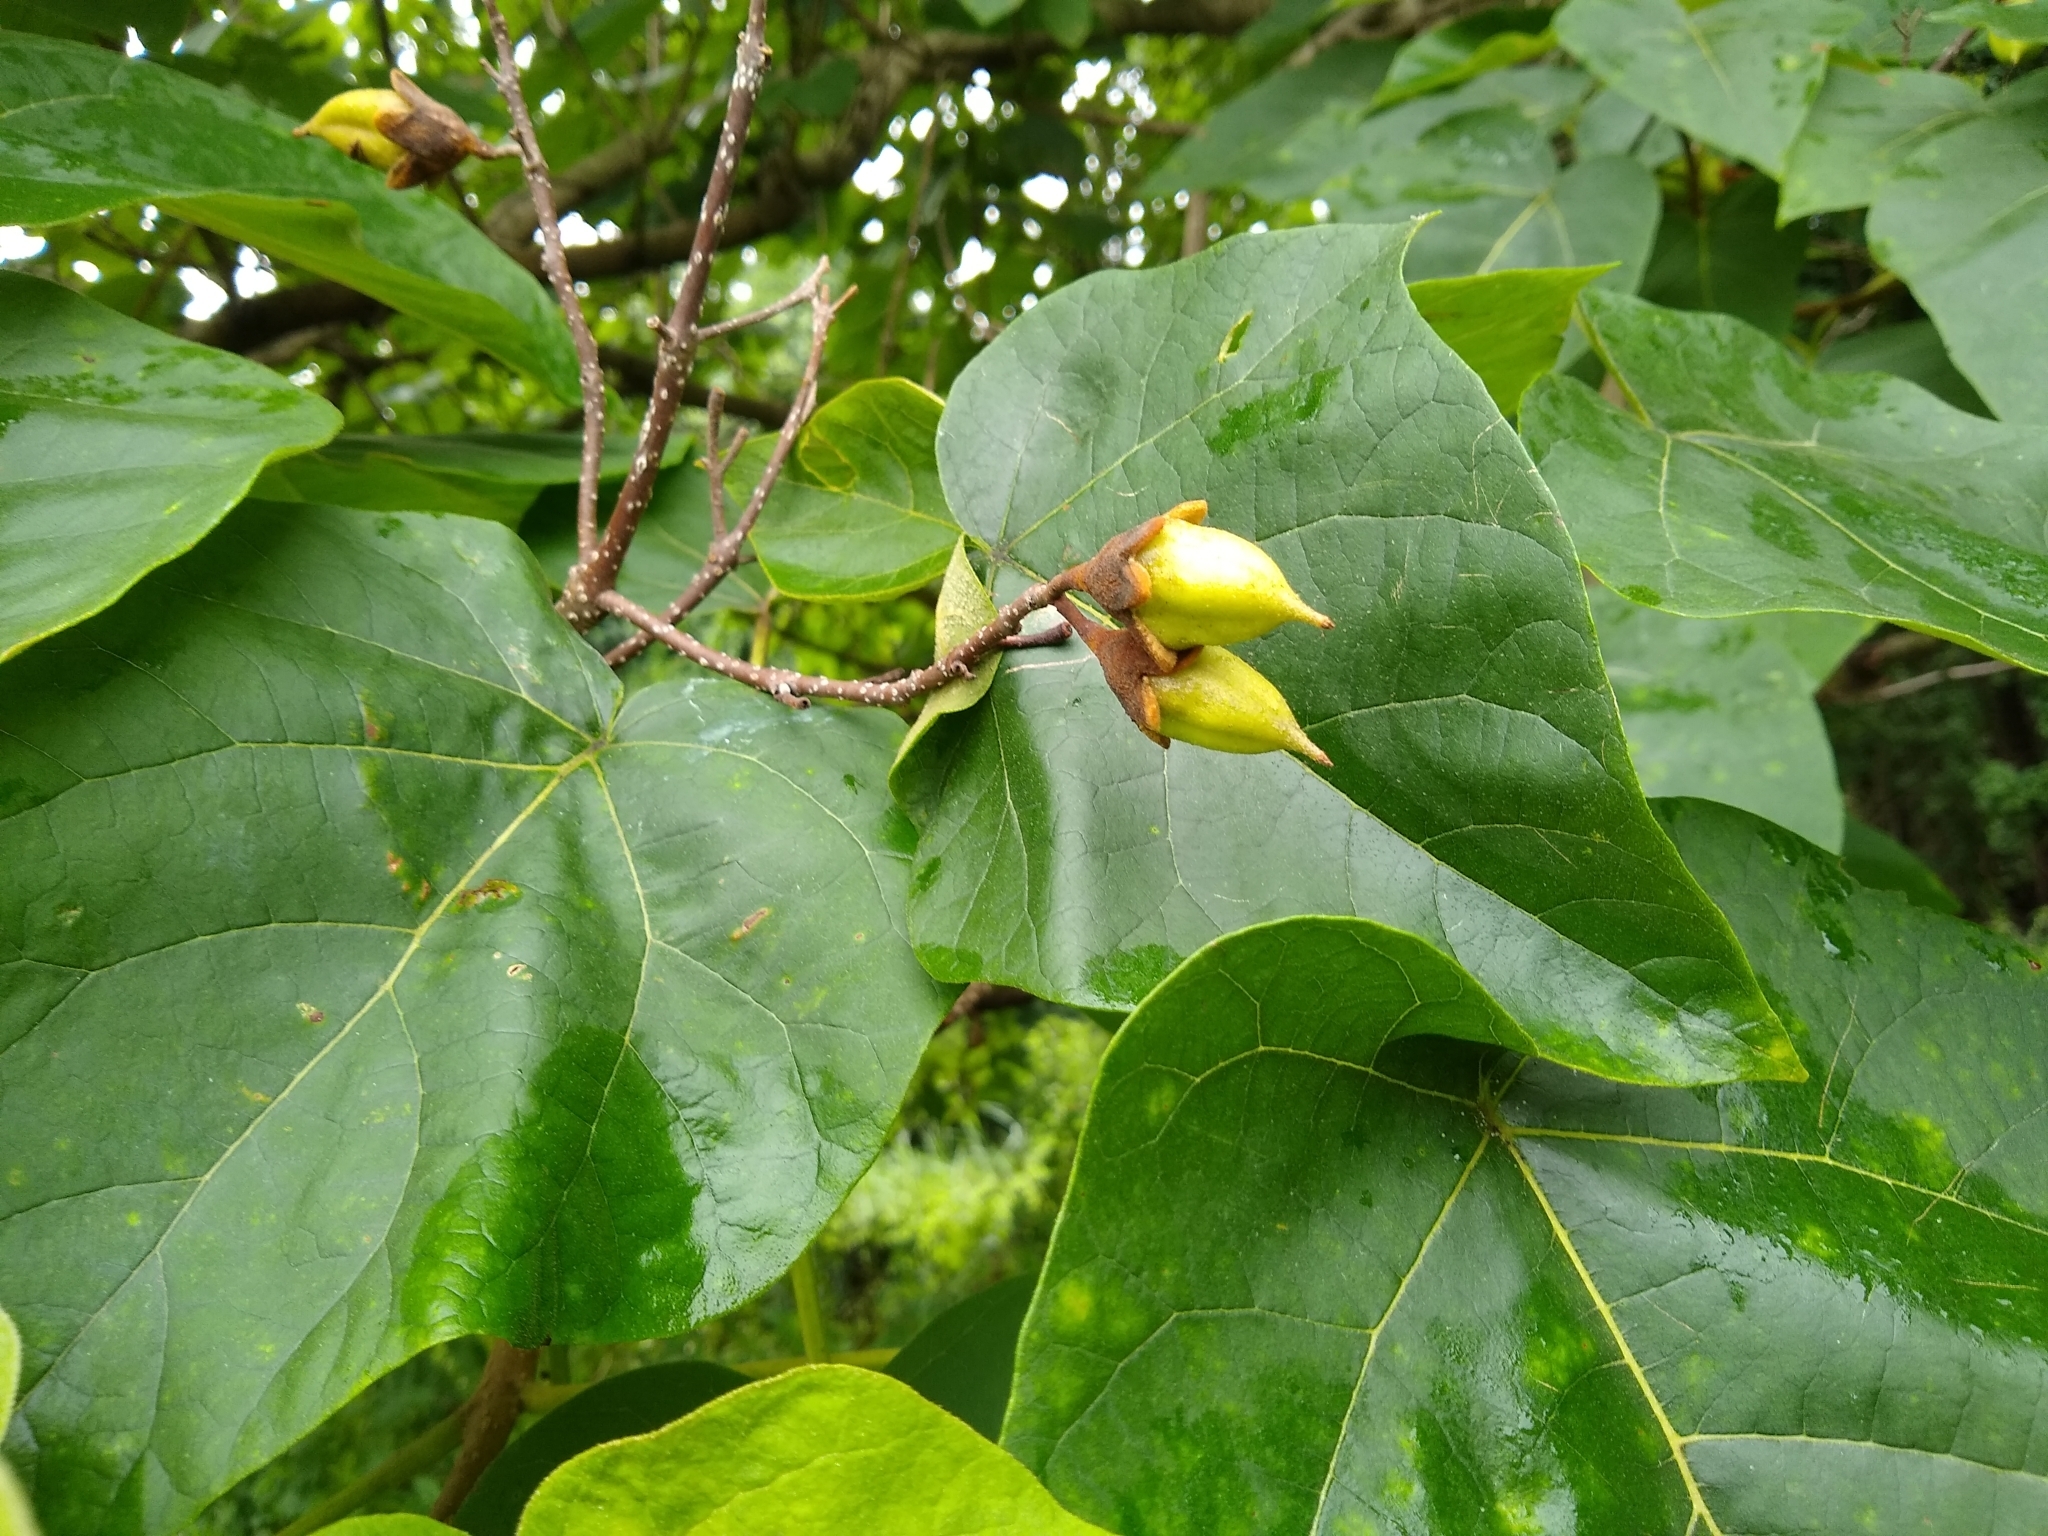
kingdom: Plantae
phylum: Tracheophyta
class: Magnoliopsida
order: Lamiales
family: Paulowniaceae
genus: Paulownia
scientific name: Paulownia tomentosa
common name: Foxglove-tree
